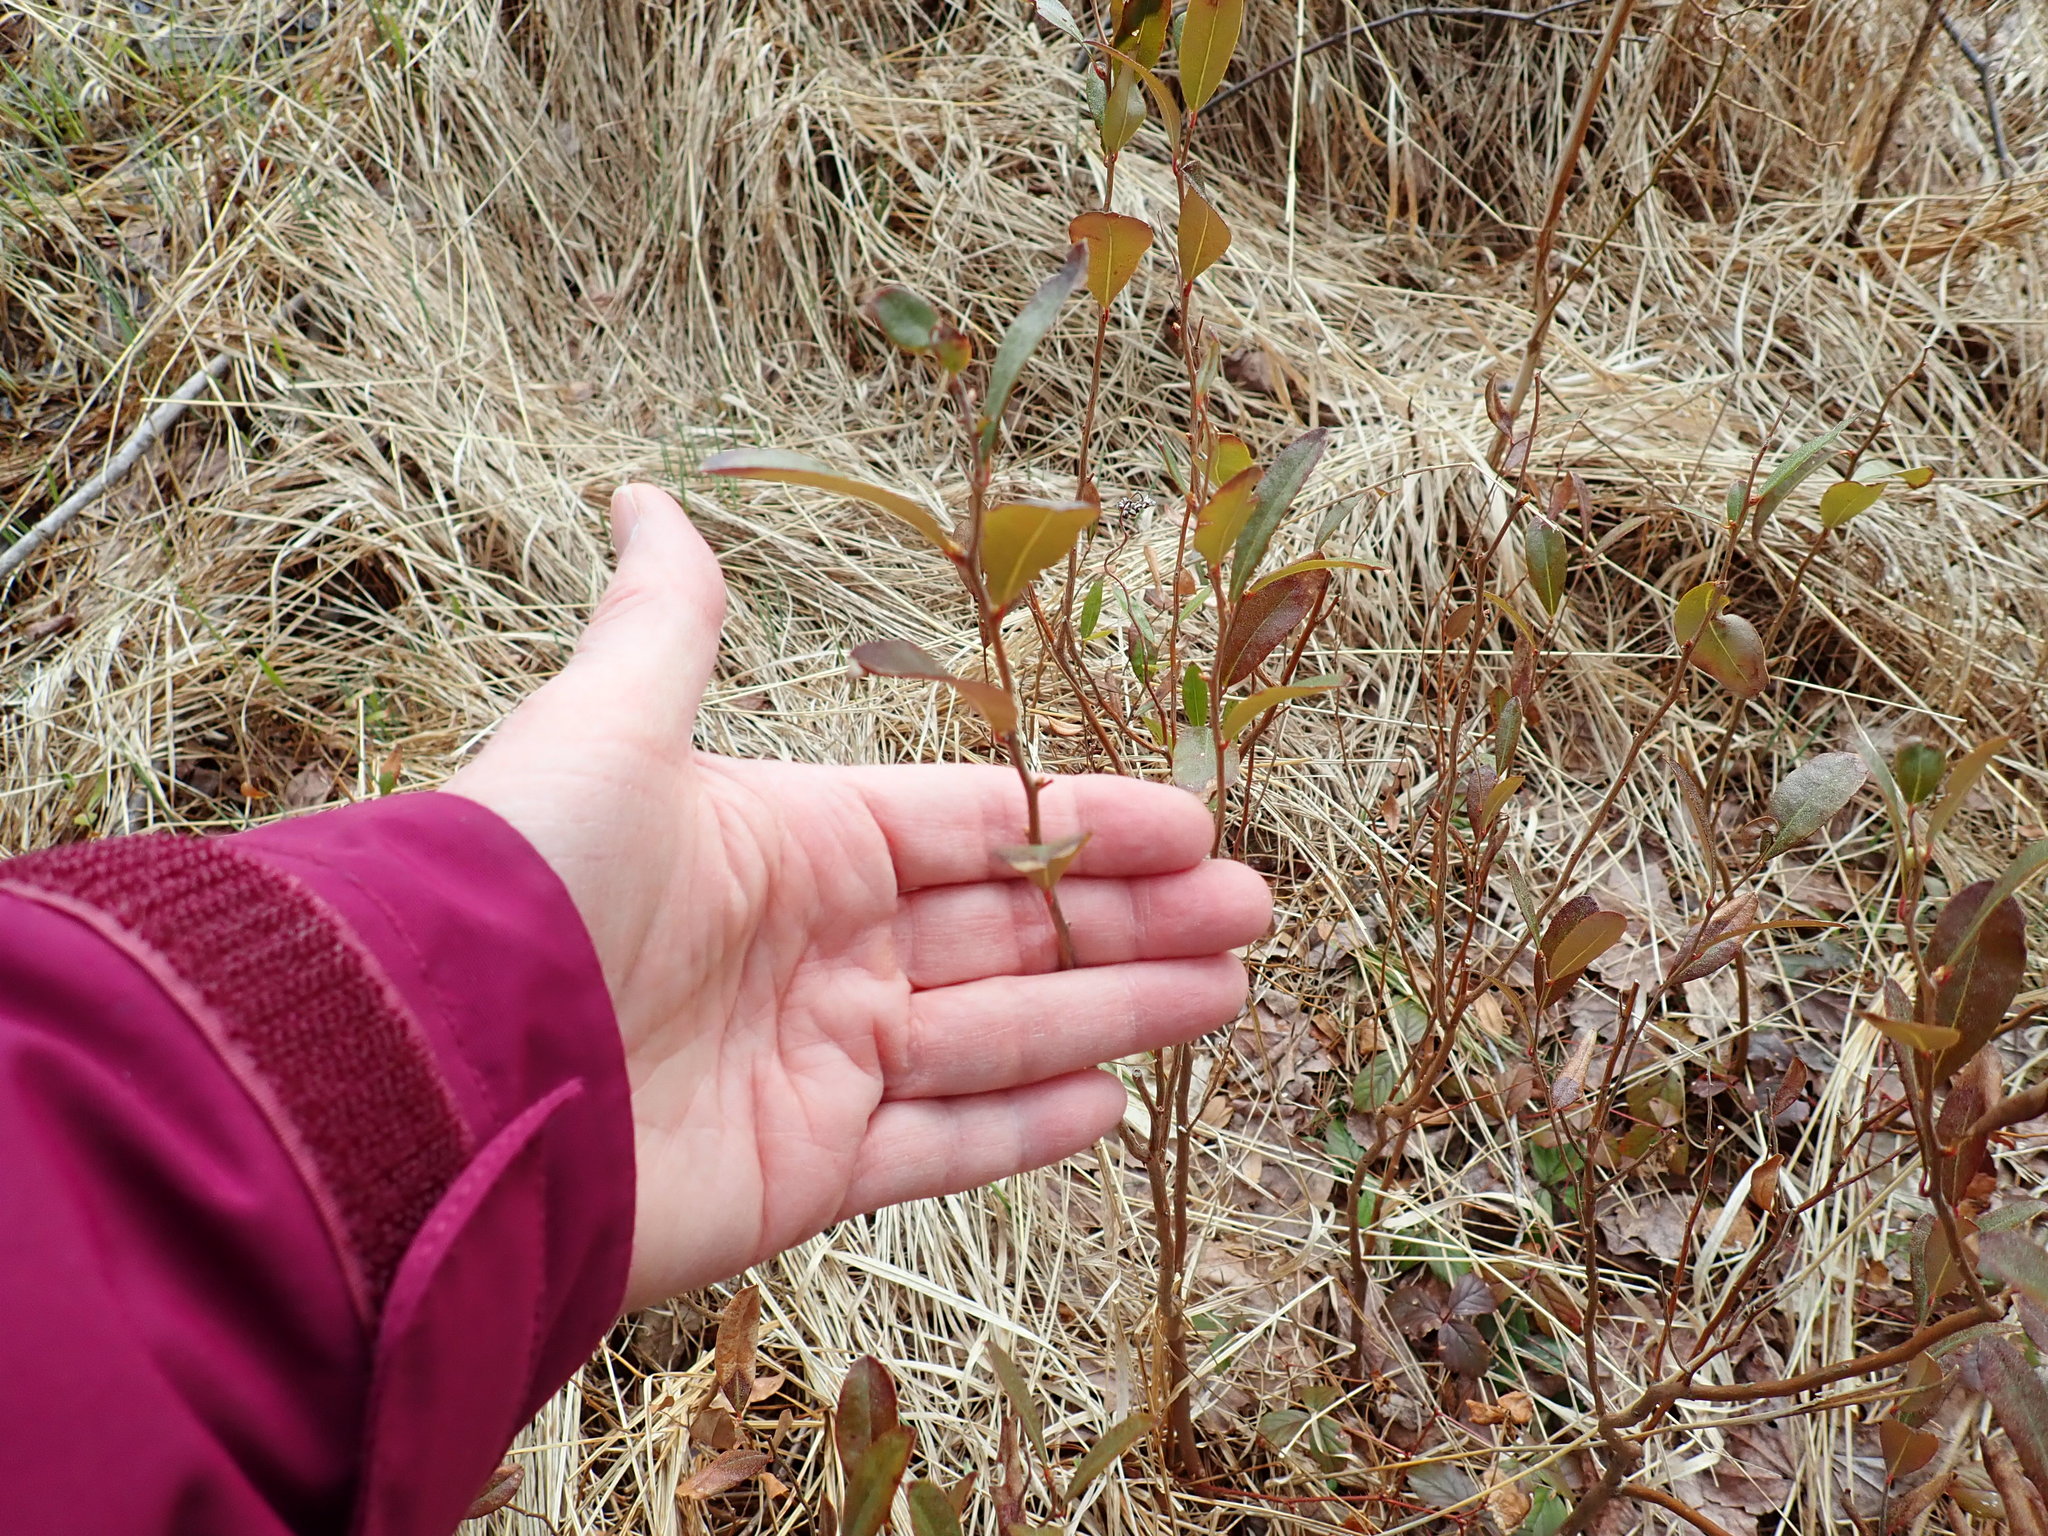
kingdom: Plantae
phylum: Tracheophyta
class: Magnoliopsida
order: Ericales
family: Ericaceae
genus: Chamaedaphne
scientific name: Chamaedaphne calyculata
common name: Leatherleaf
